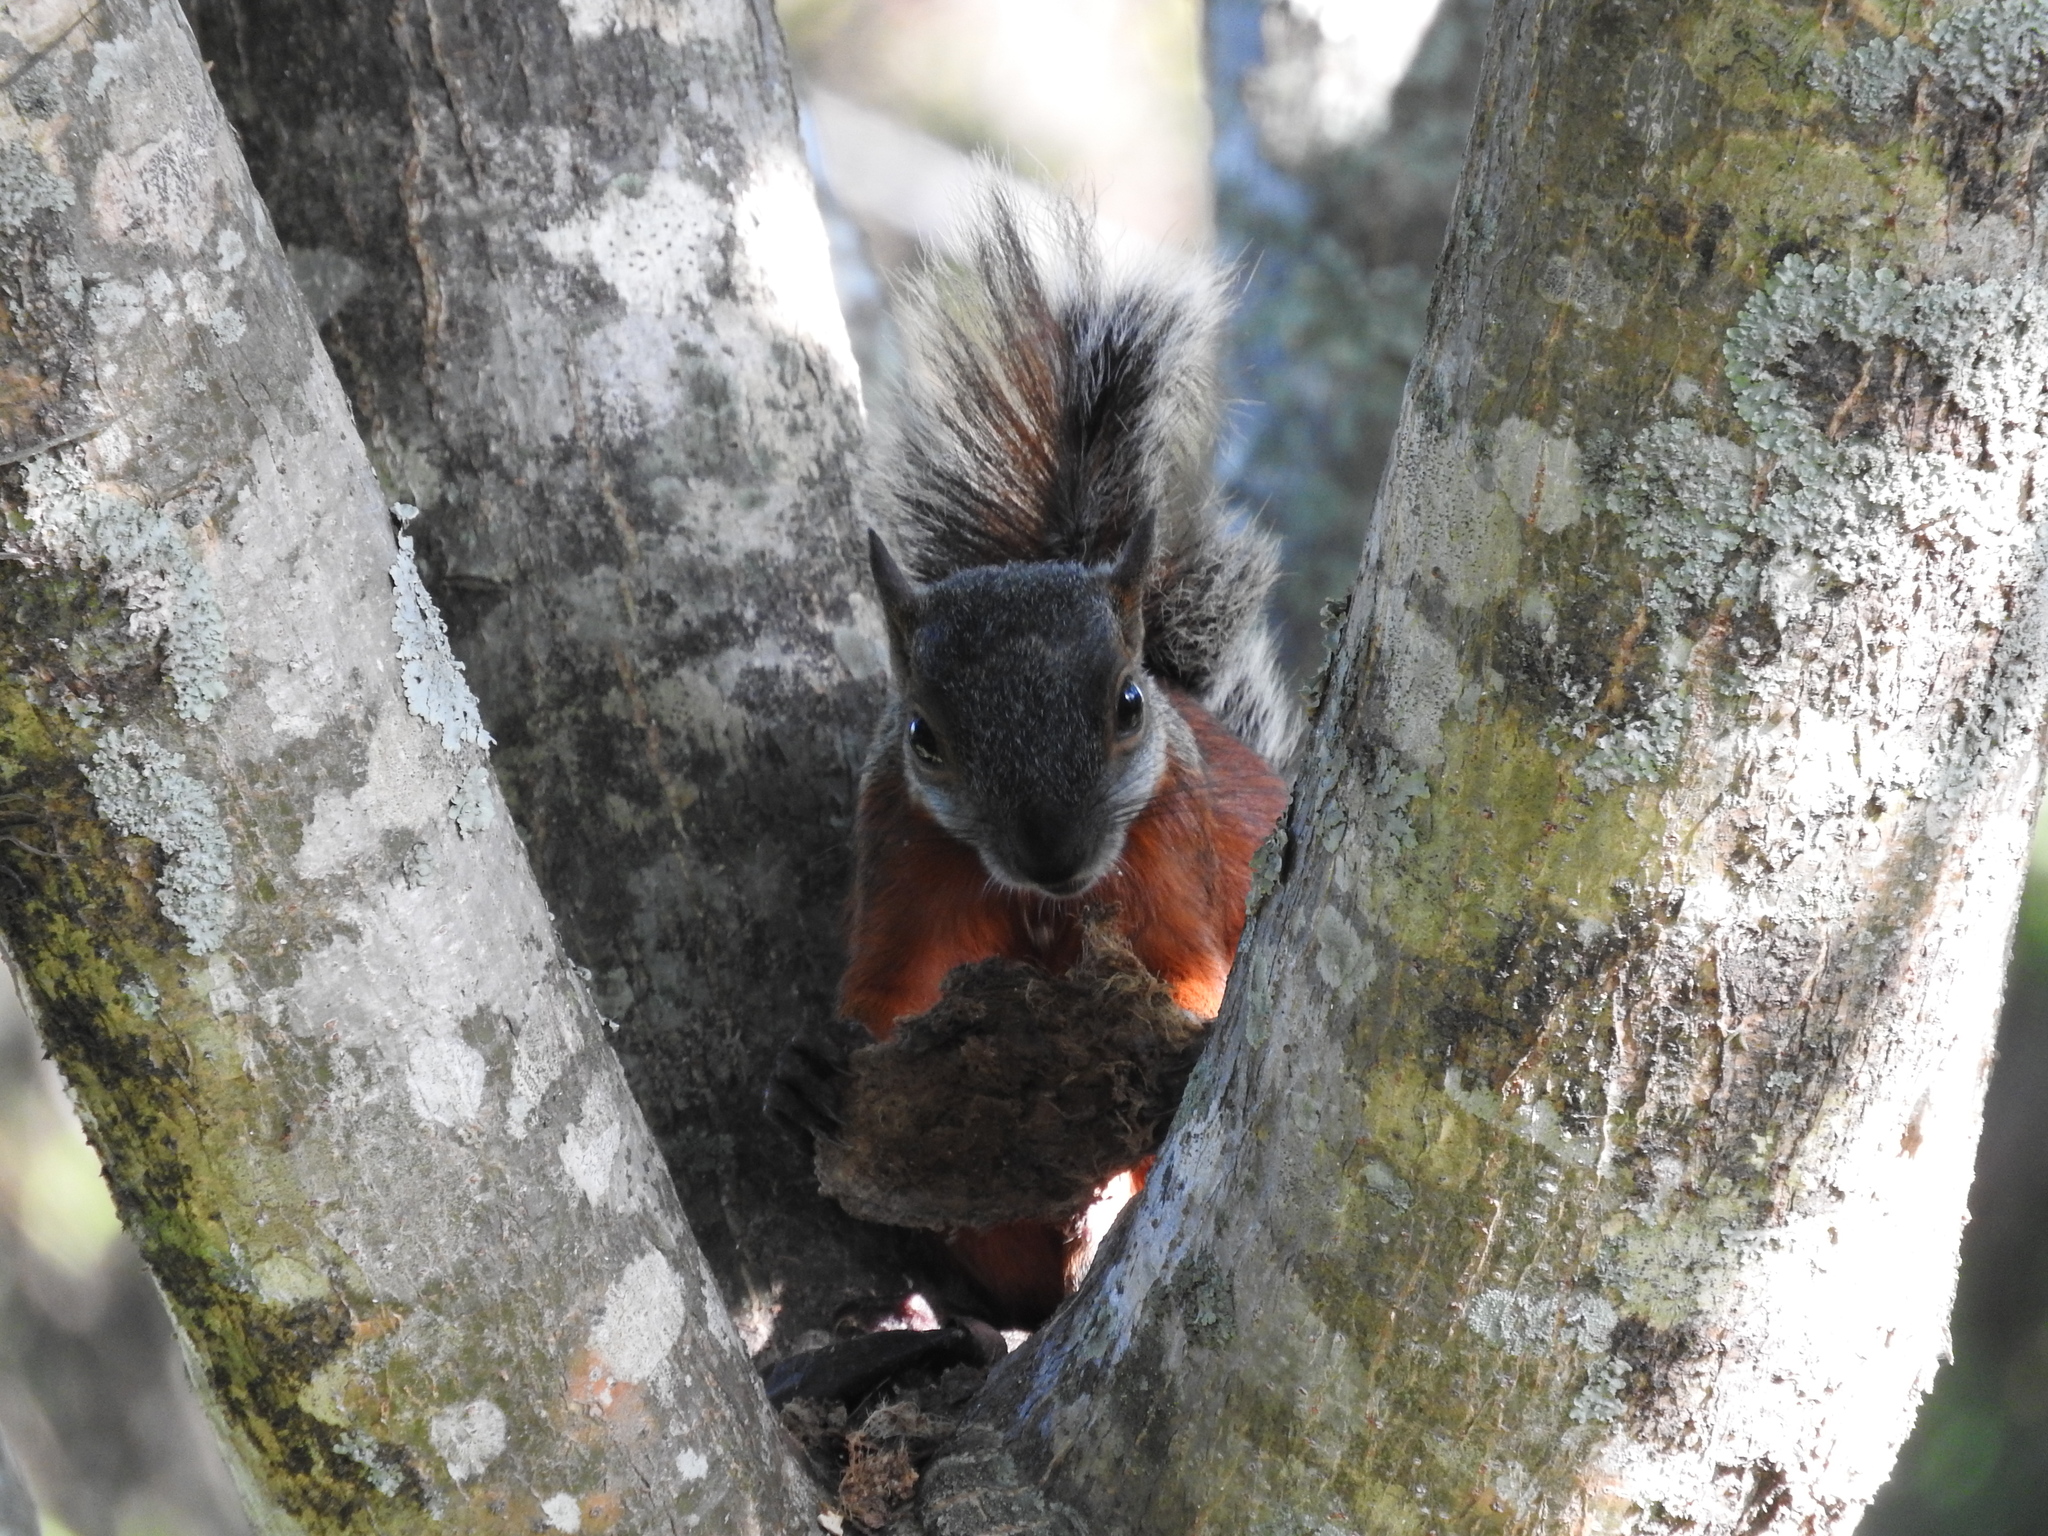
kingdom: Animalia
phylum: Chordata
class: Mammalia
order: Rodentia
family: Sciuridae
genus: Sciurus
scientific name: Sciurus aureogaster
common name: Red-bellied squirrel
